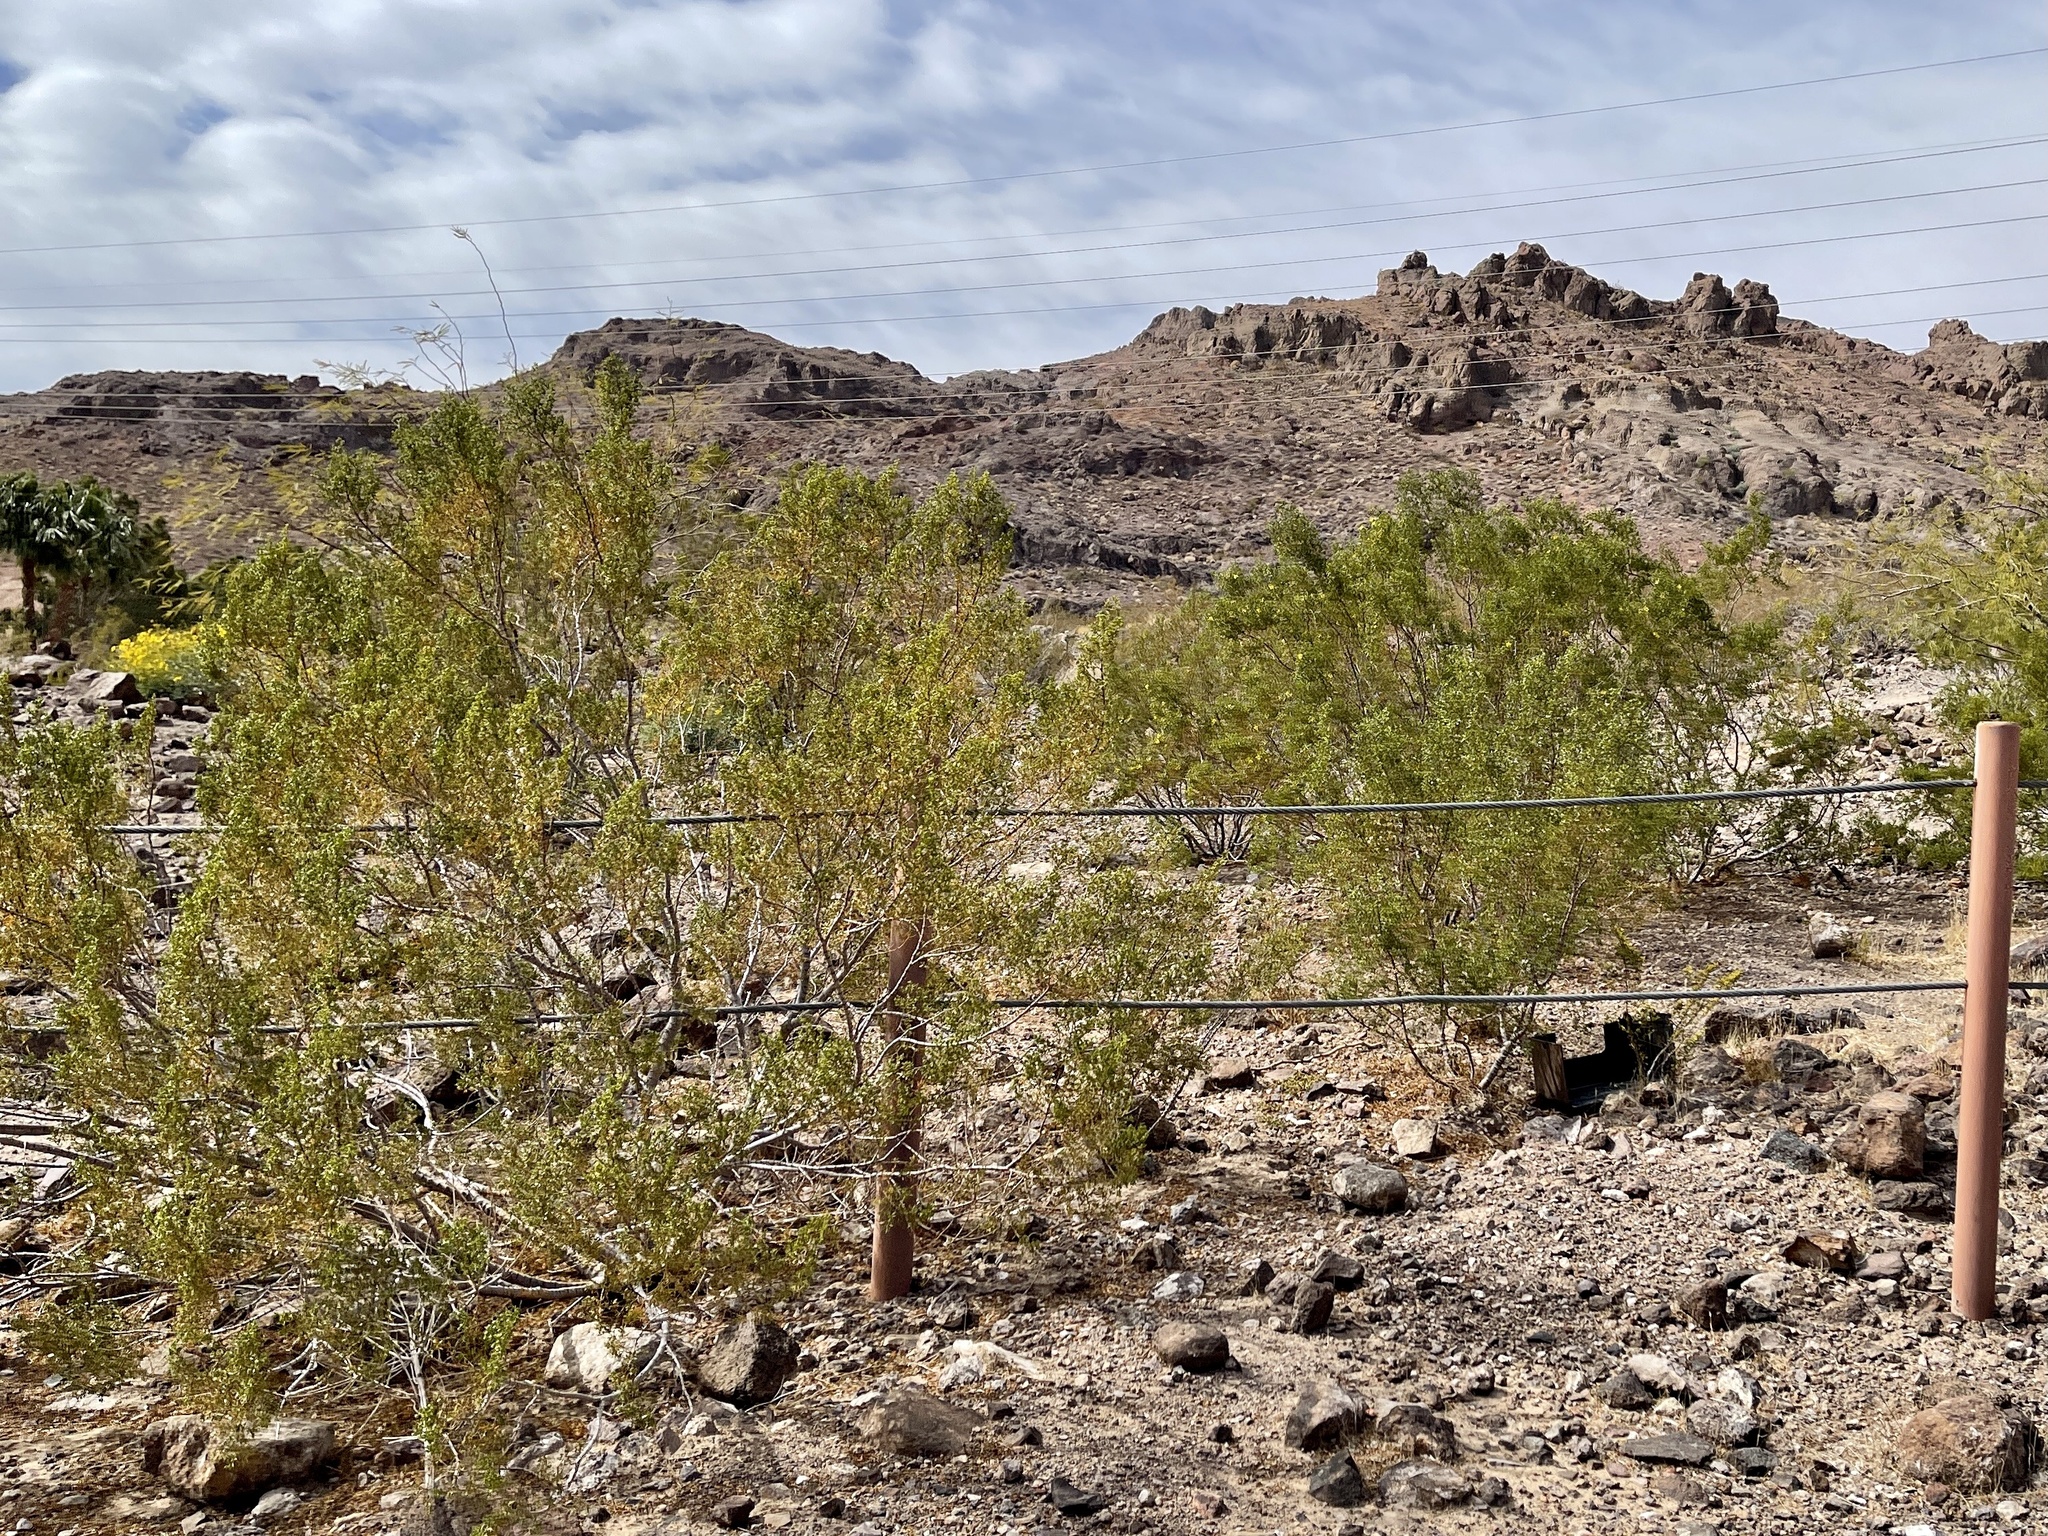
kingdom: Plantae
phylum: Tracheophyta
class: Magnoliopsida
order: Zygophyllales
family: Zygophyllaceae
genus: Larrea
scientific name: Larrea tridentata
